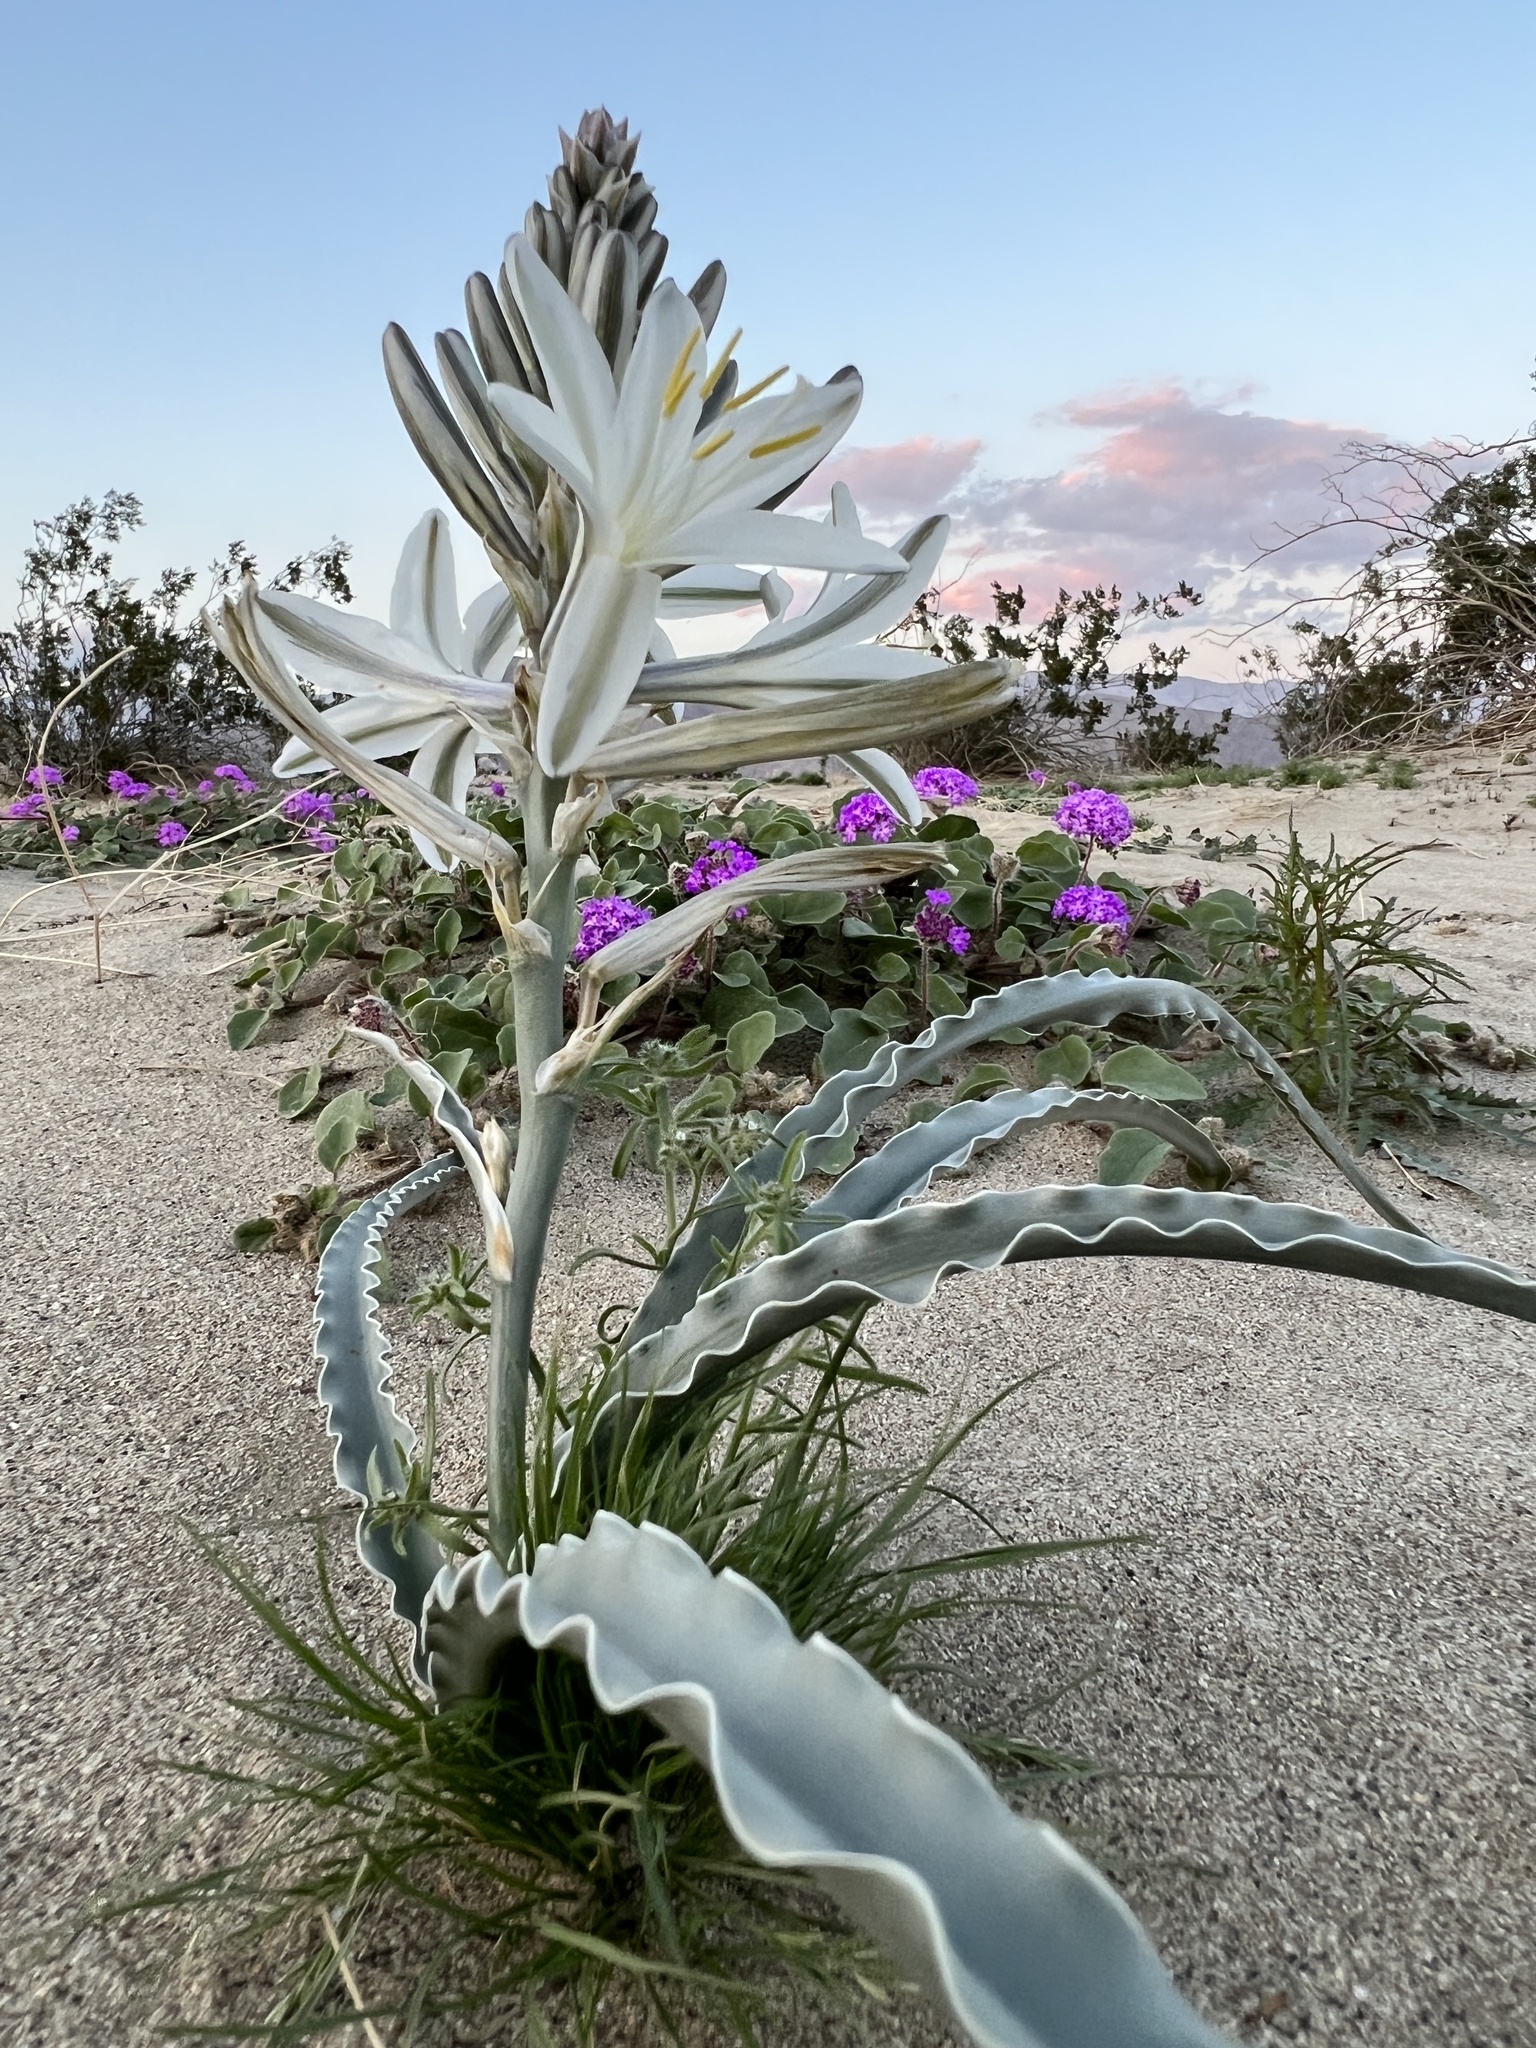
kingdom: Plantae
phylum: Tracheophyta
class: Liliopsida
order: Asparagales
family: Asparagaceae
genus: Hesperocallis
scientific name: Hesperocallis undulata
